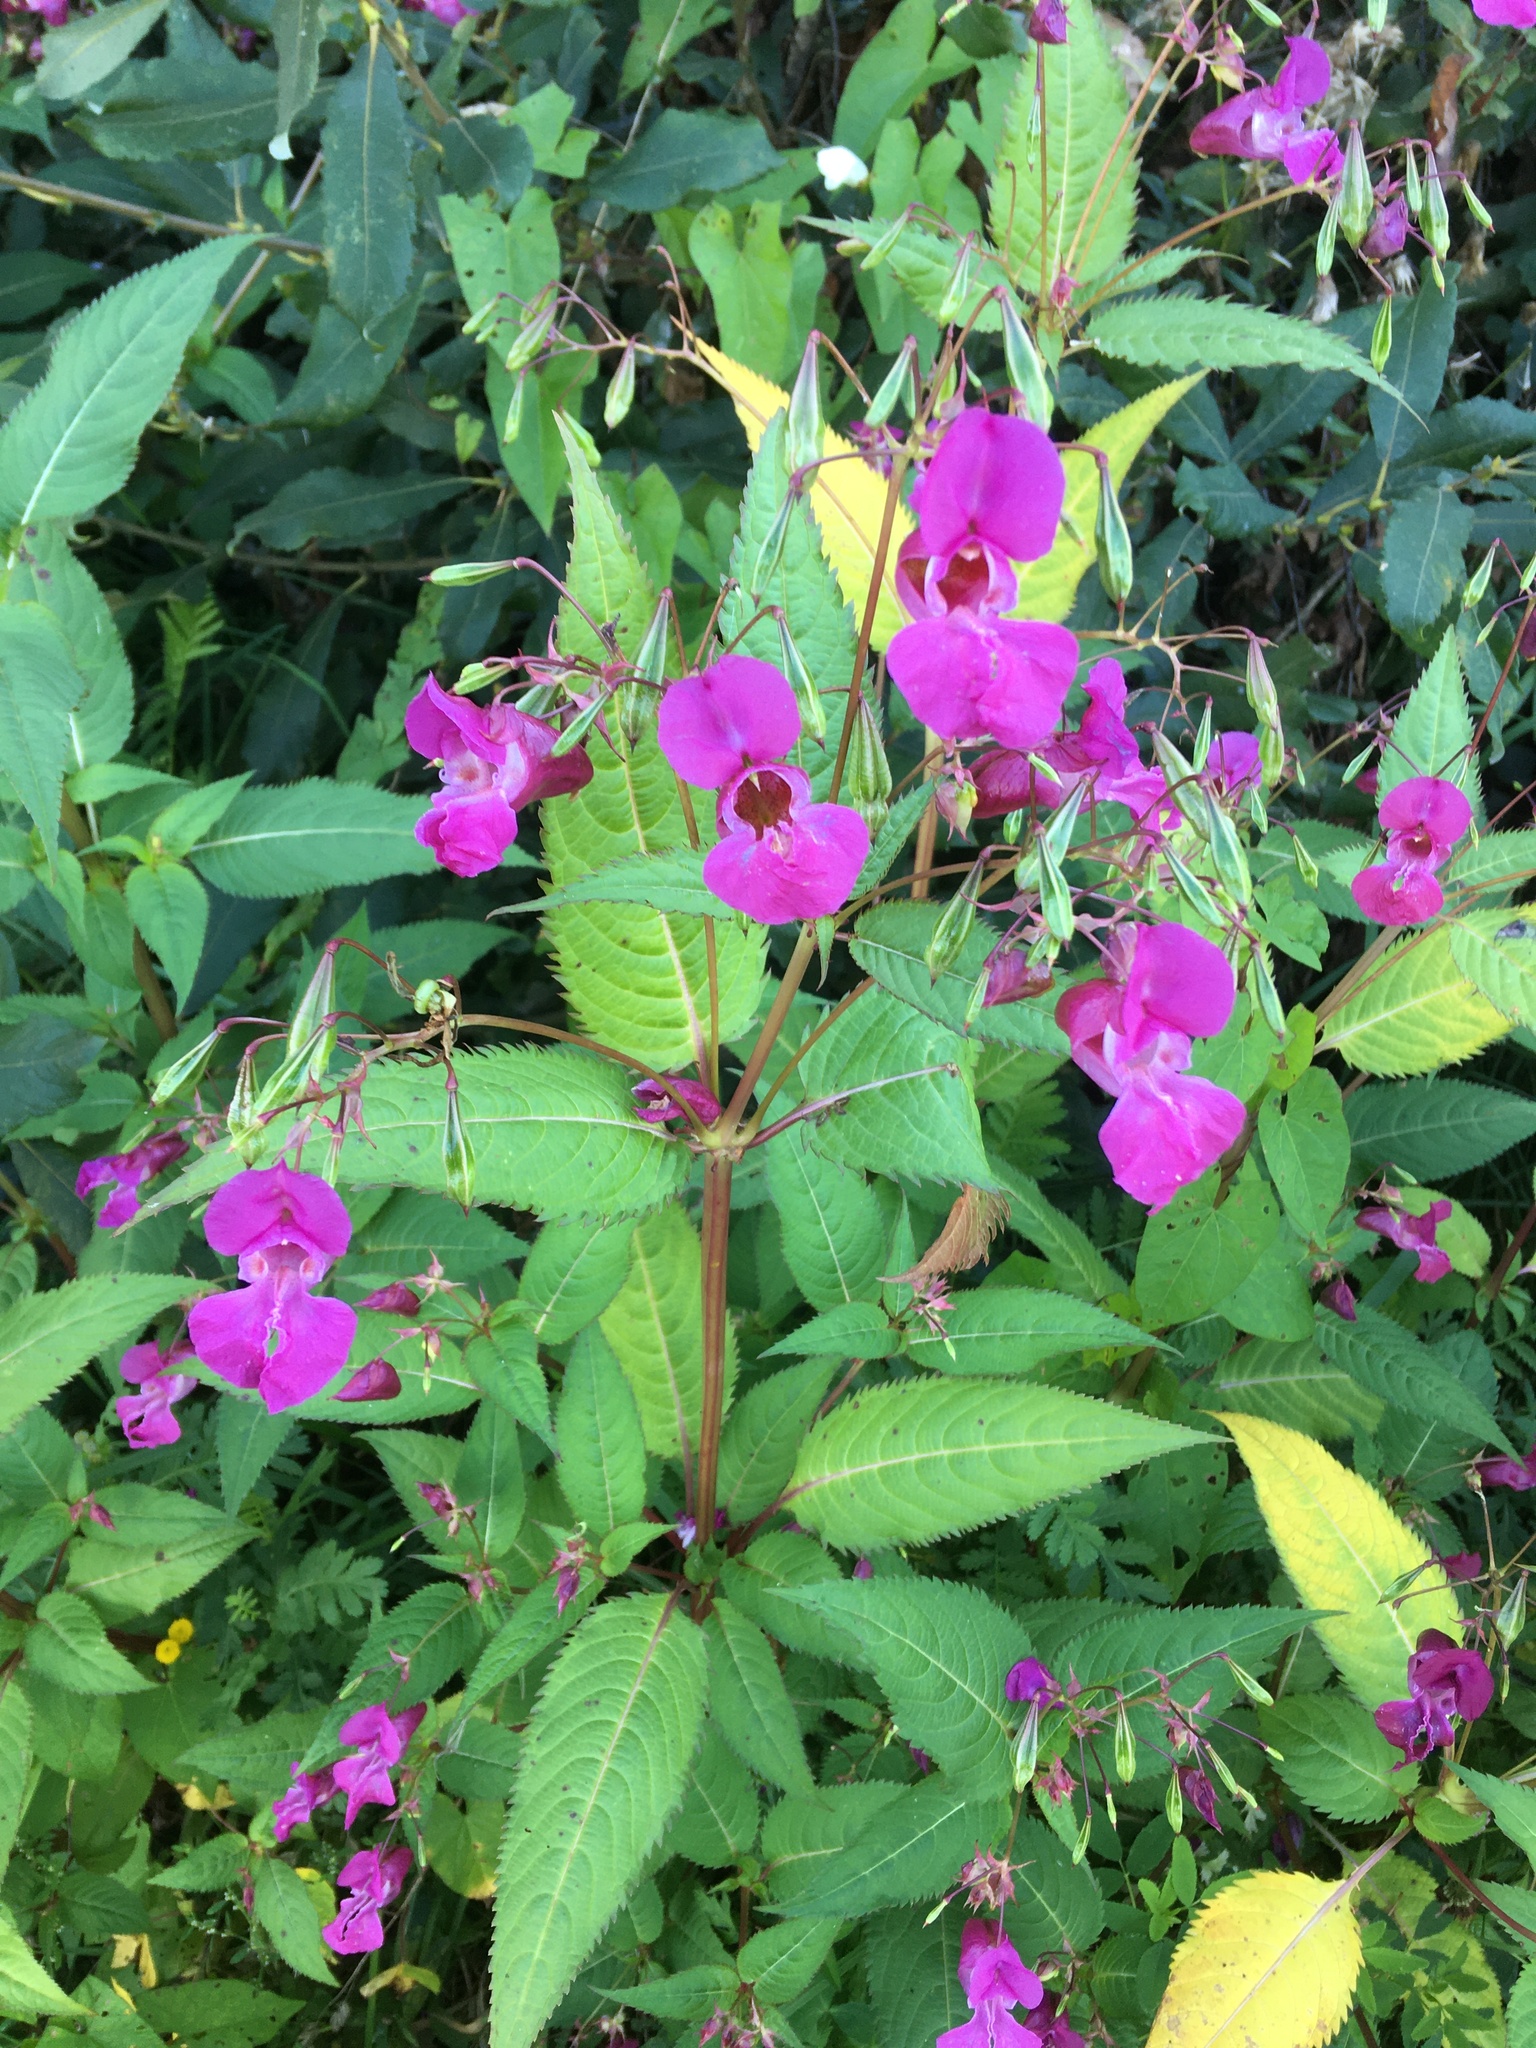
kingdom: Plantae
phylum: Tracheophyta
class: Magnoliopsida
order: Ericales
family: Balsaminaceae
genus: Impatiens
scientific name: Impatiens glandulifera
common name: Himalayan balsam
